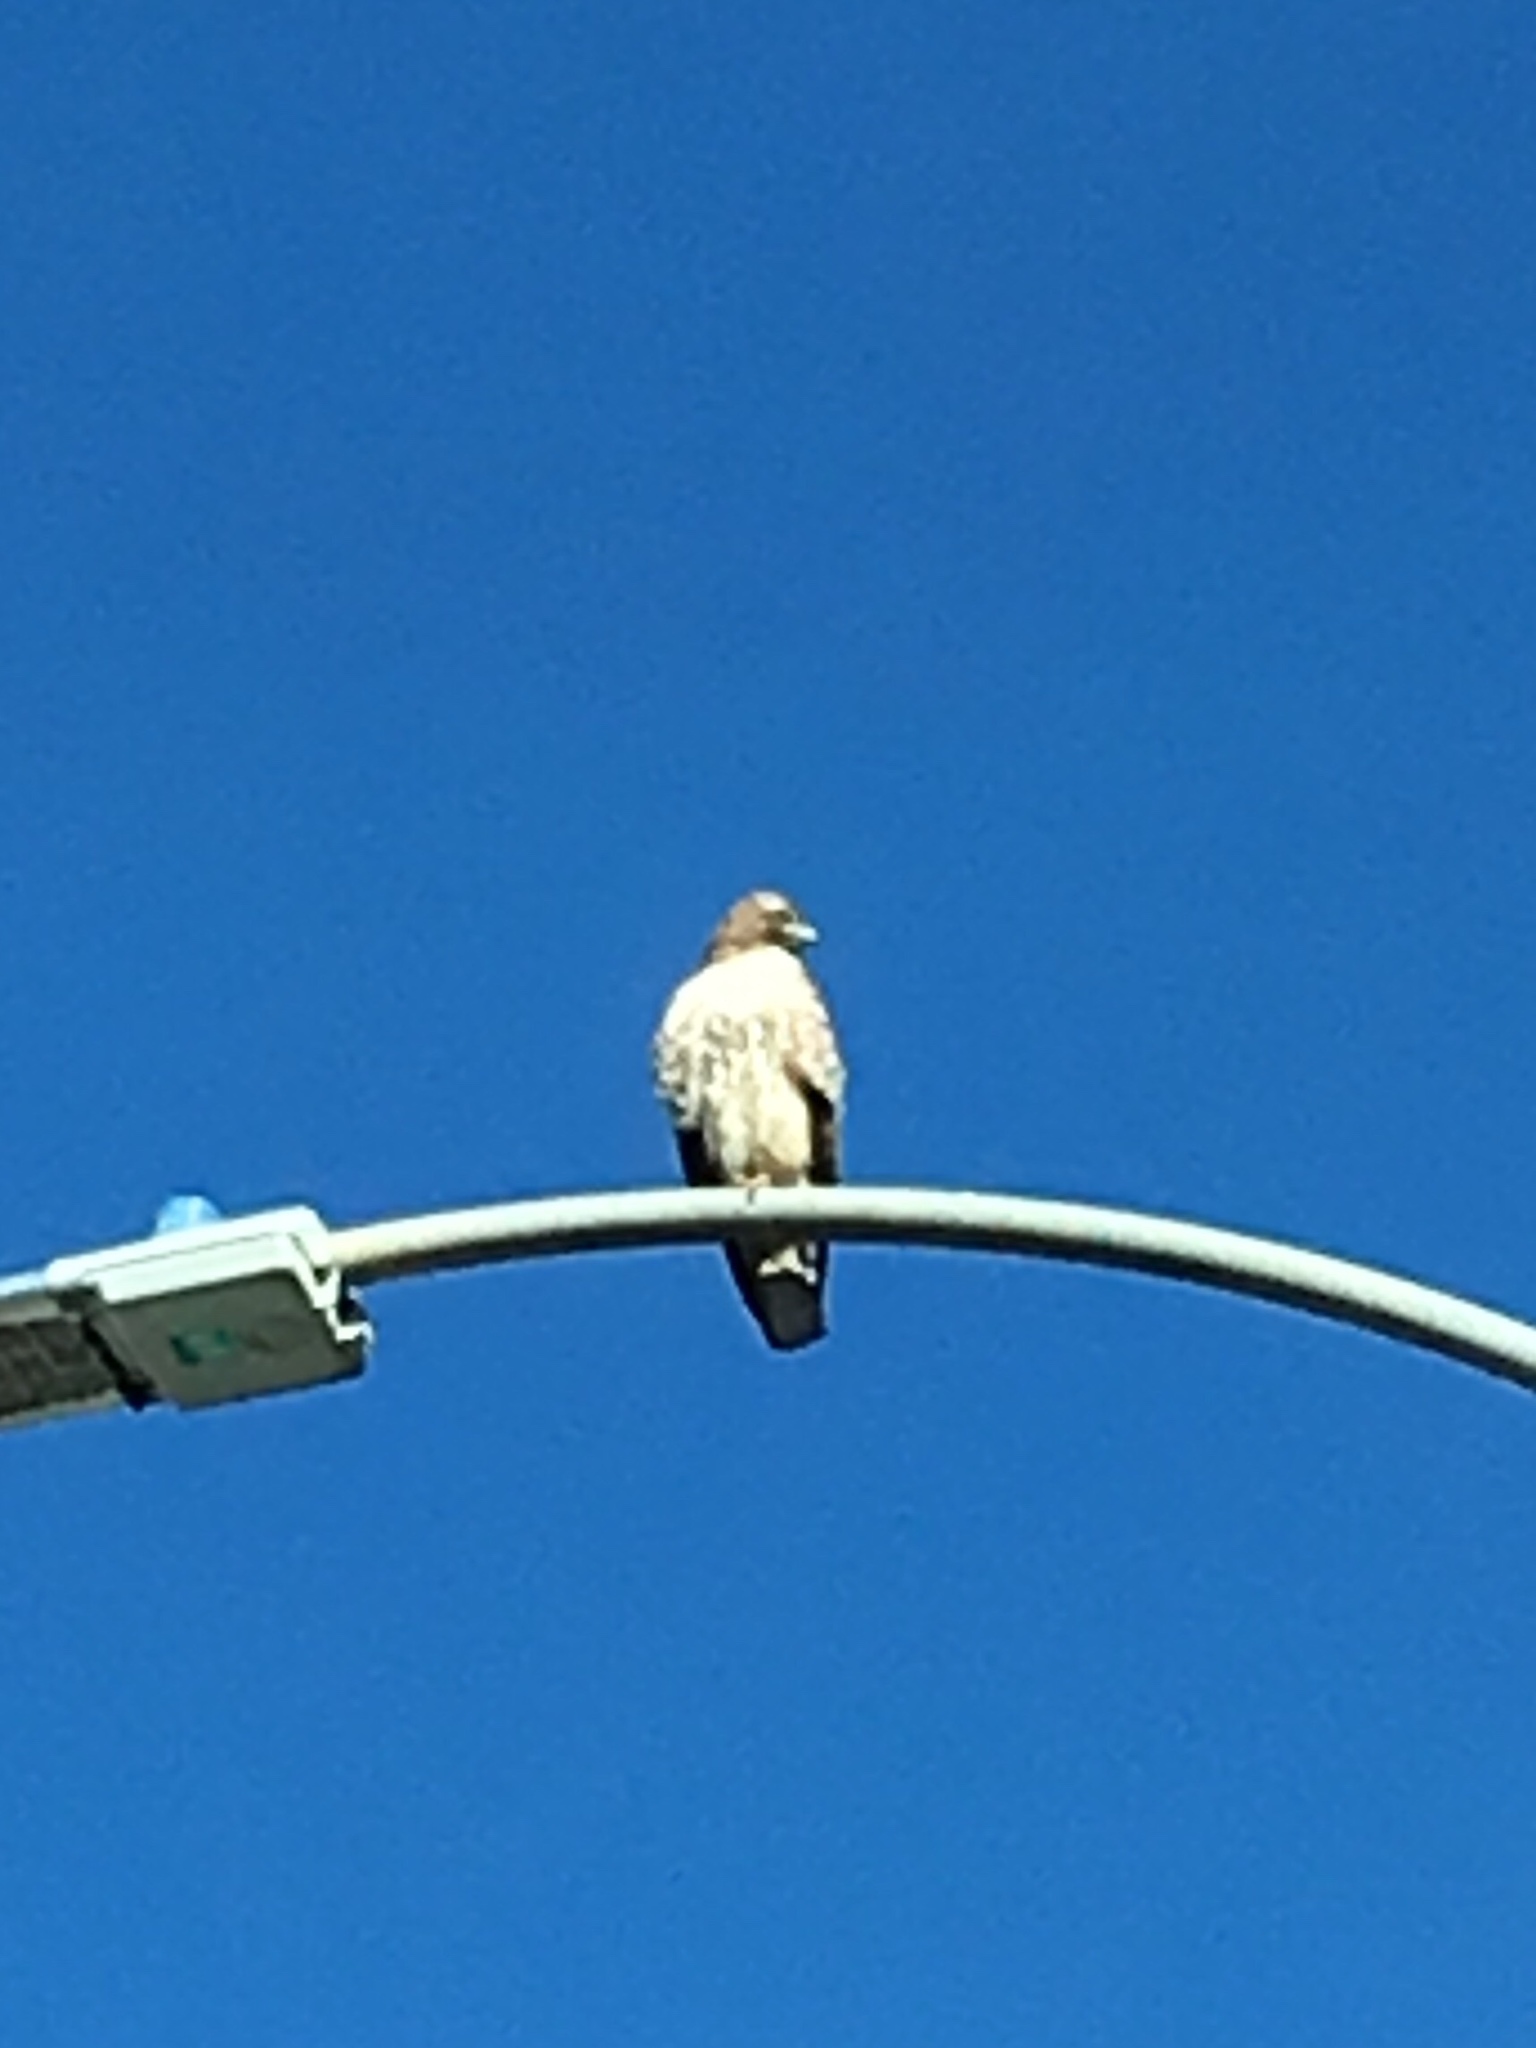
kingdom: Animalia
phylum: Chordata
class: Aves
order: Accipitriformes
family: Accipitridae
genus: Buteo
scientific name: Buteo jamaicensis
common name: Red-tailed hawk
